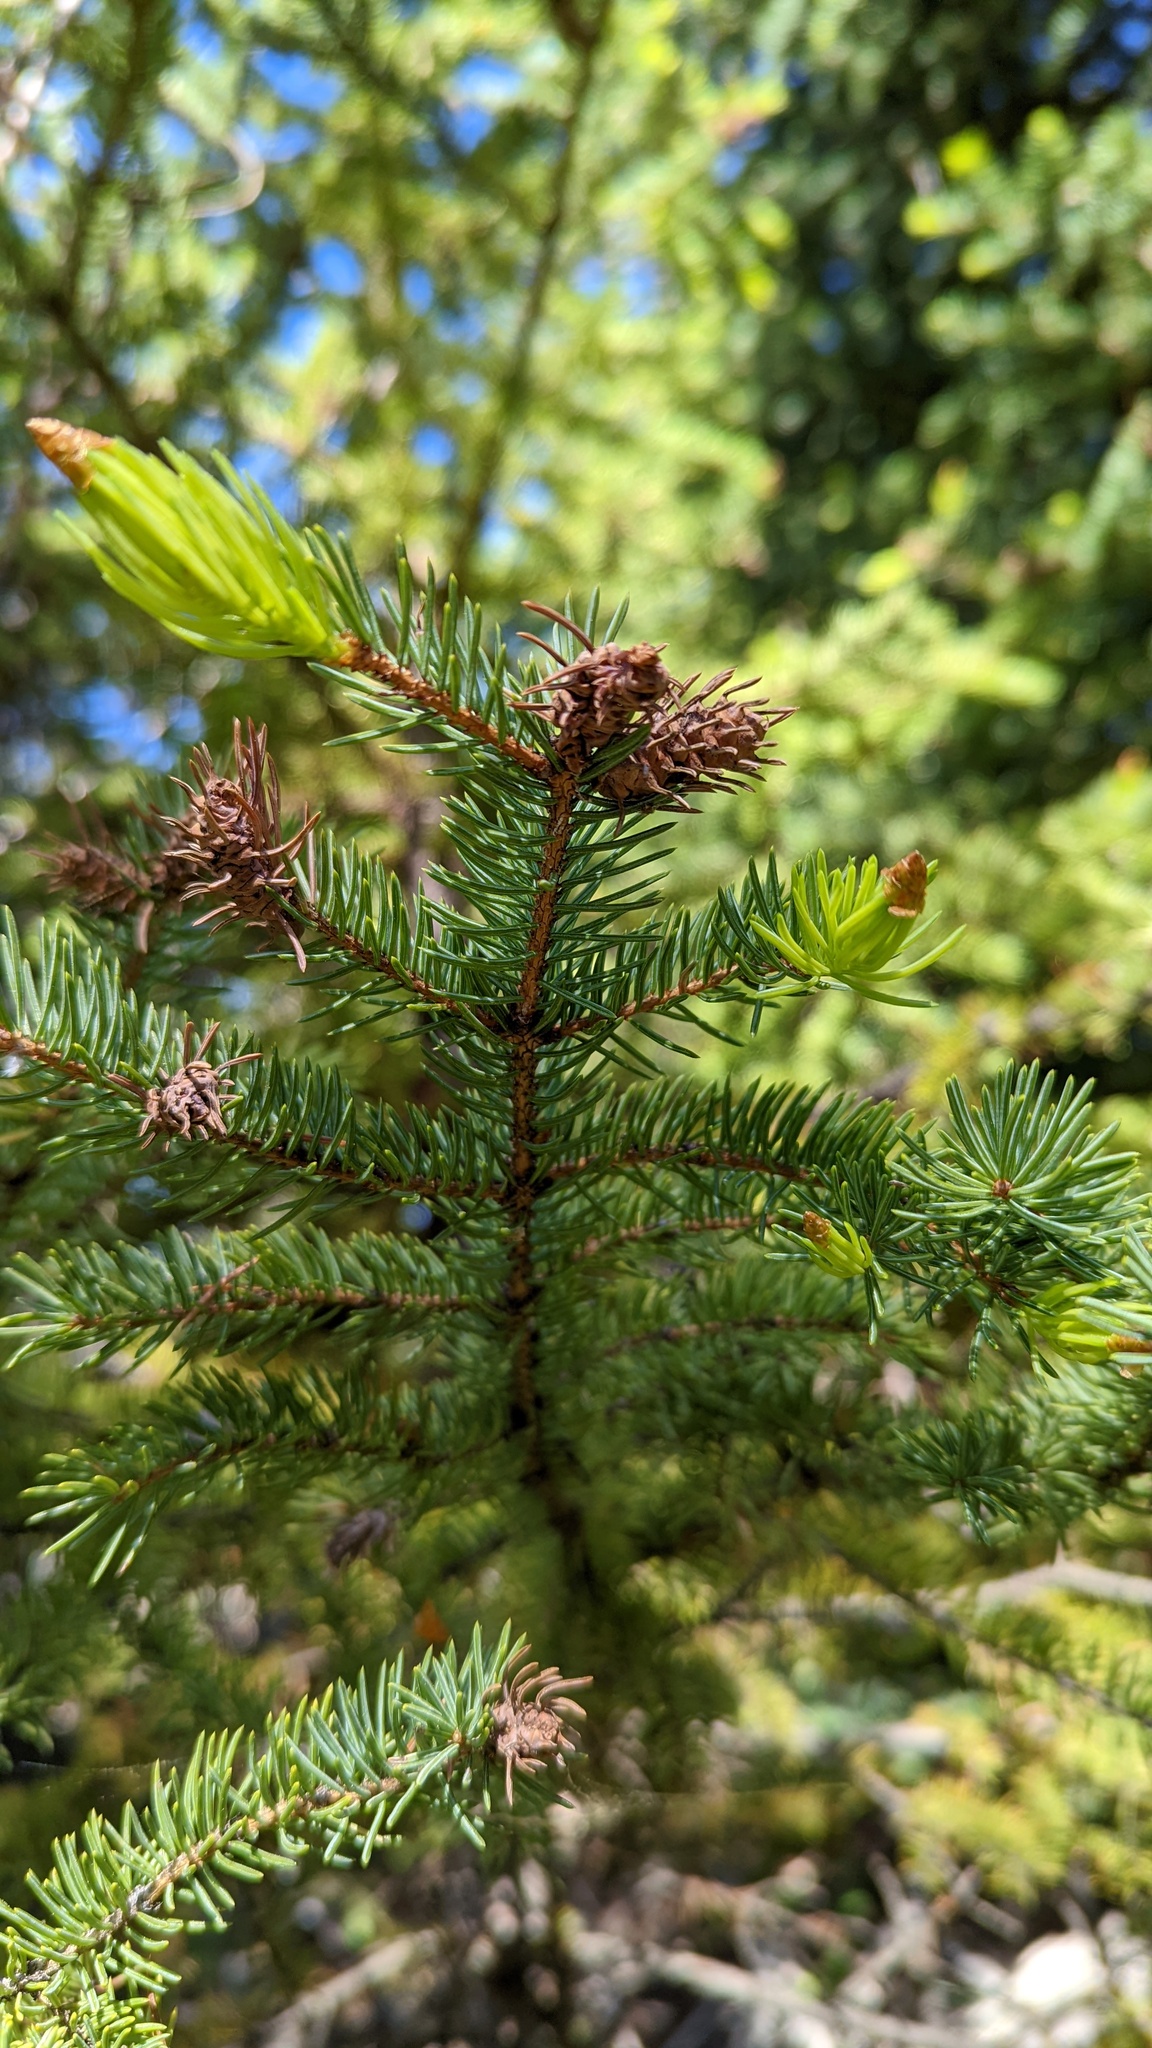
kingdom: Animalia
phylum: Arthropoda
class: Insecta
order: Hemiptera
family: Adelgidae
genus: Adelges
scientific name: Adelges cooleyi
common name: Cooley spruce gall adelgid
